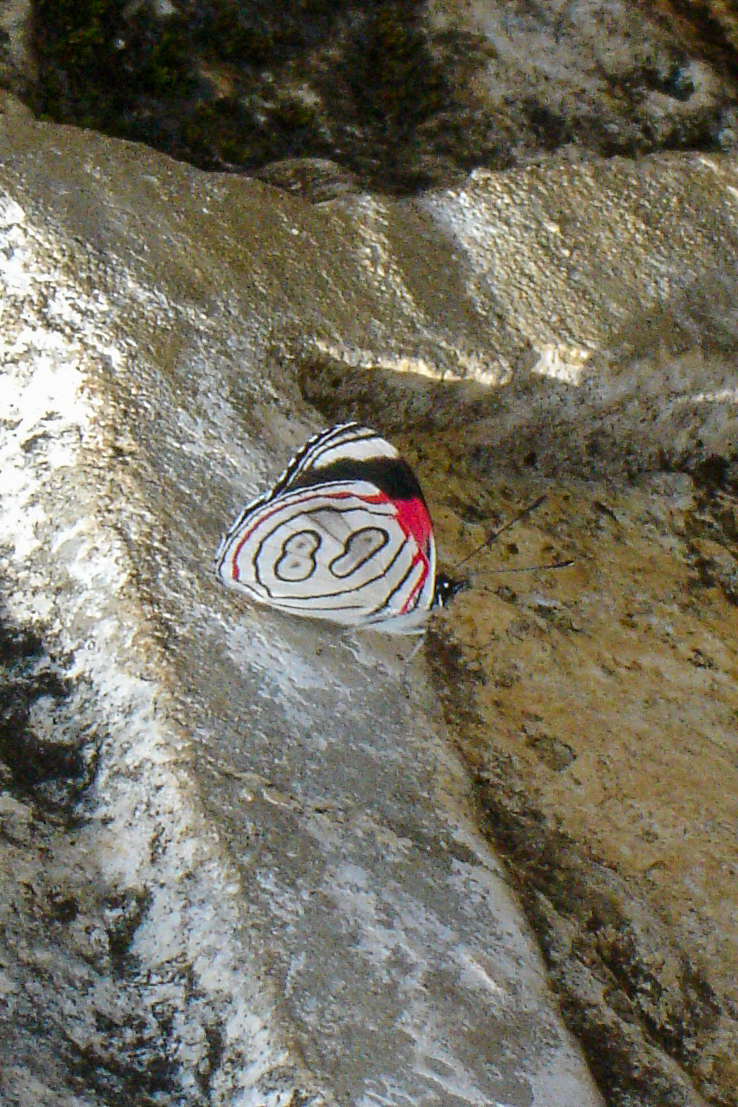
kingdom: Animalia
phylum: Arthropoda
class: Insecta
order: Lepidoptera
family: Nymphalidae
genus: Diaethria
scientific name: Diaethria astala
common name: Navy eighty-eight
